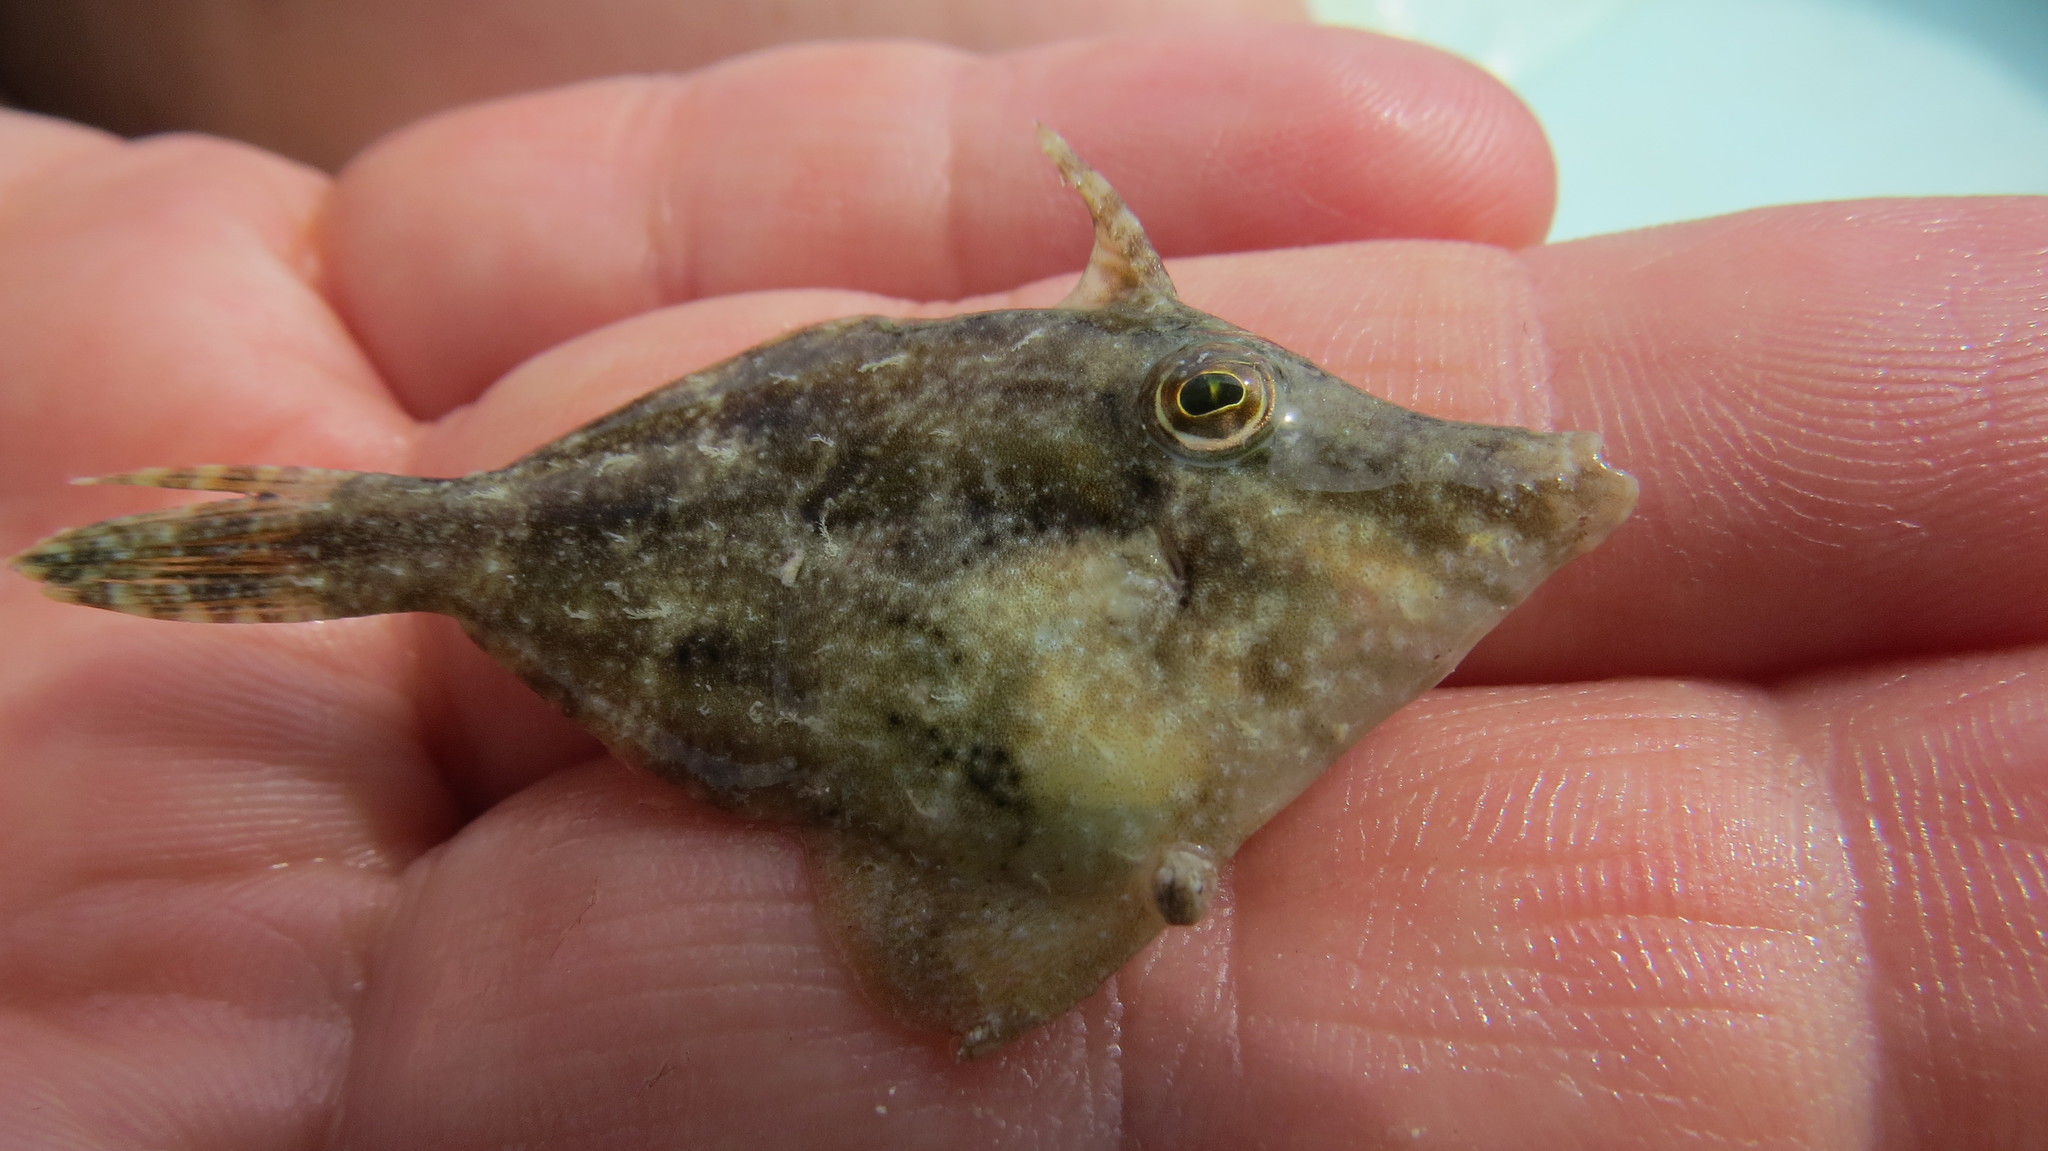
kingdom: Animalia
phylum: Chordata
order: Tetraodontiformes
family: Monacanthidae
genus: Monacanthus
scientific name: Monacanthus ciliatus
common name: Fringed filefish
